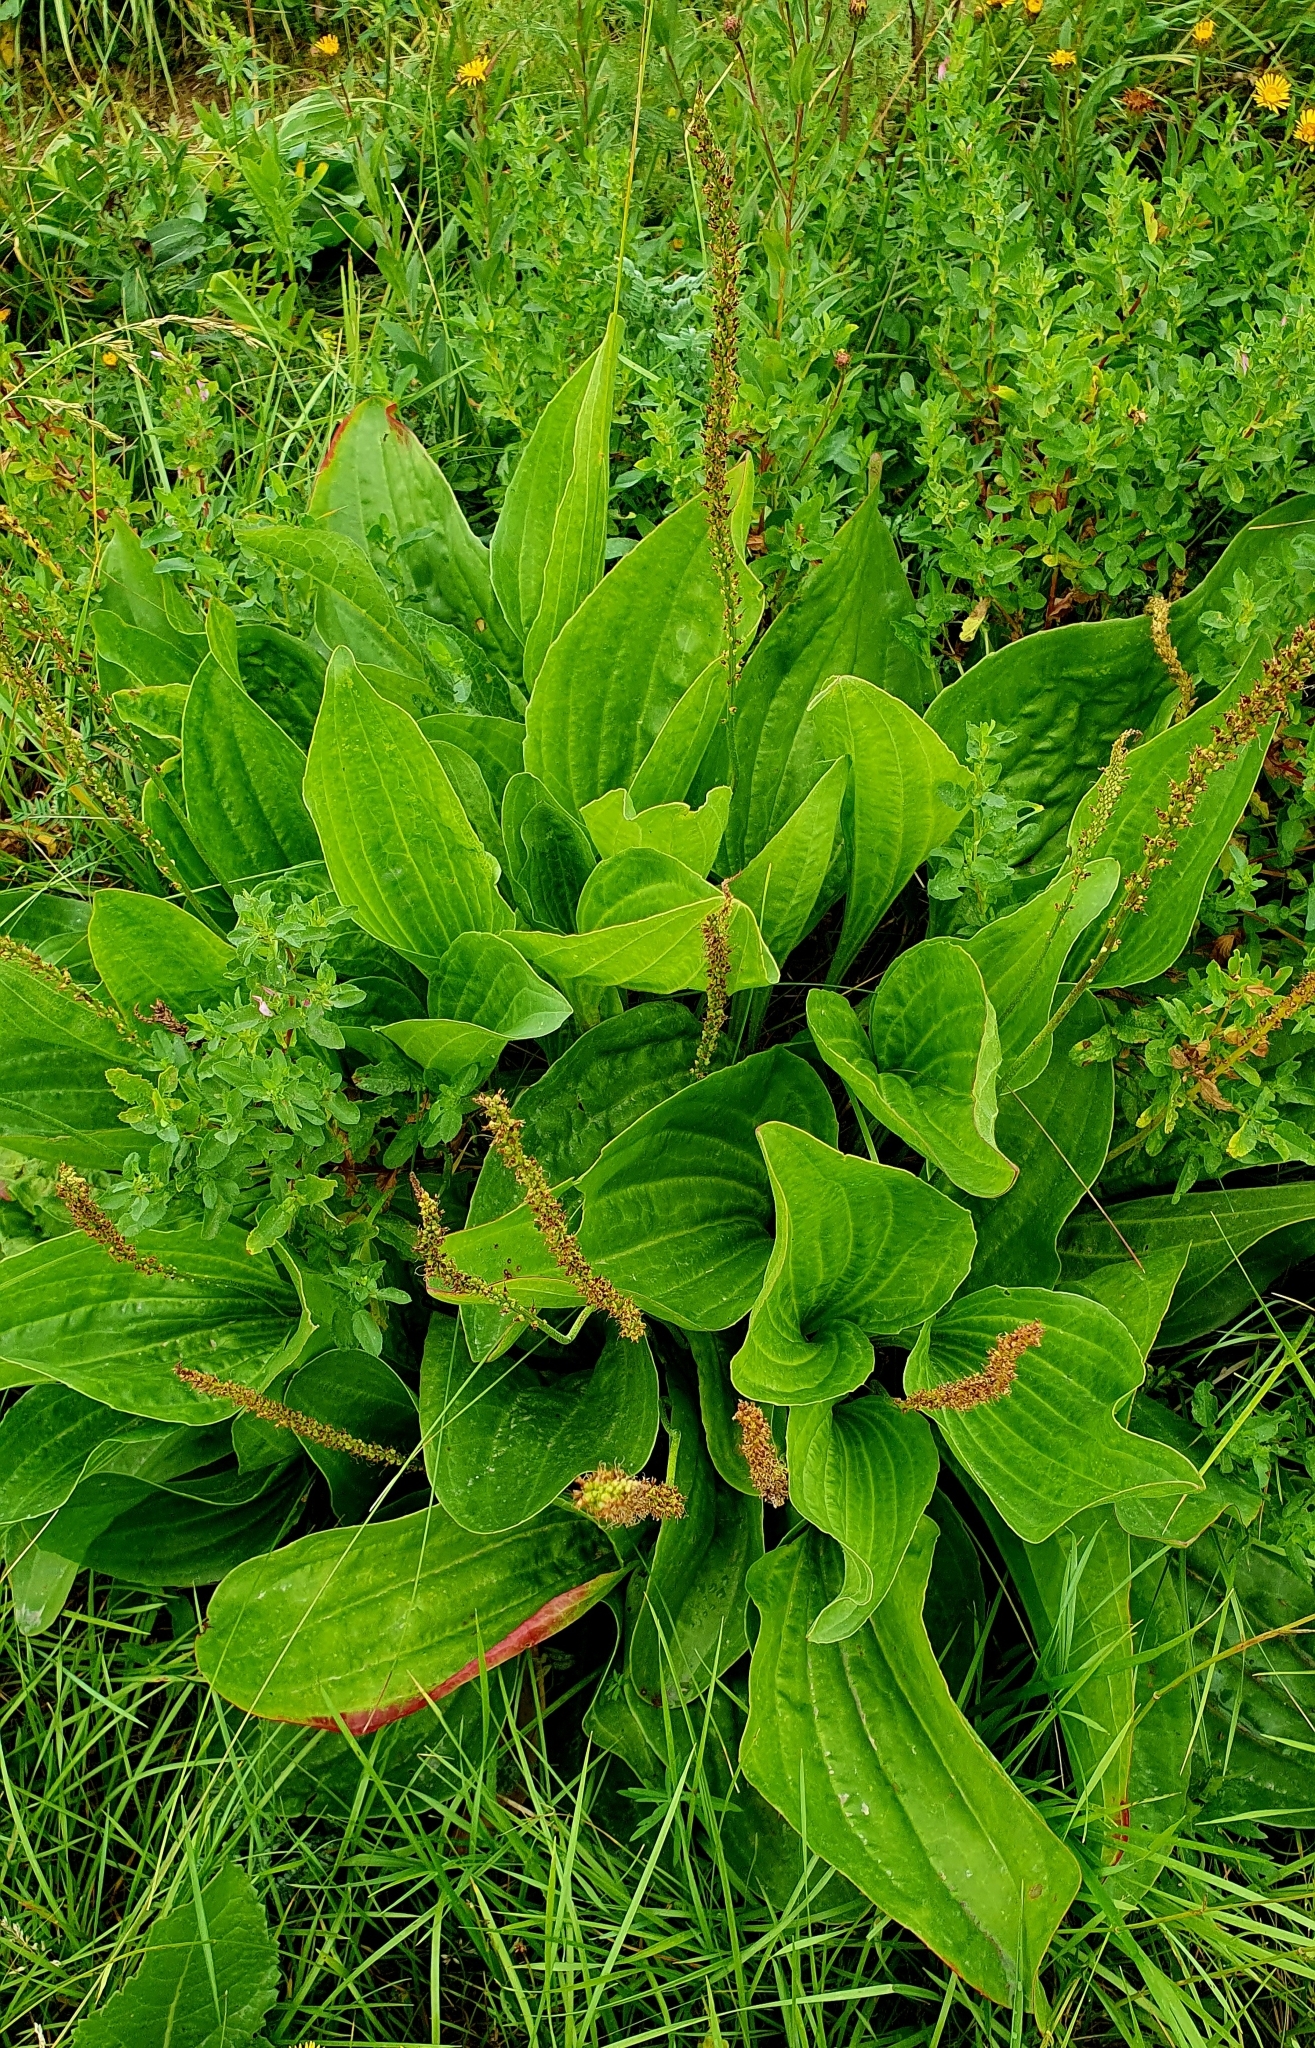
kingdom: Plantae
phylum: Tracheophyta
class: Magnoliopsida
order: Lamiales
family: Plantaginaceae
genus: Plantago
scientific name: Plantago cornuti
